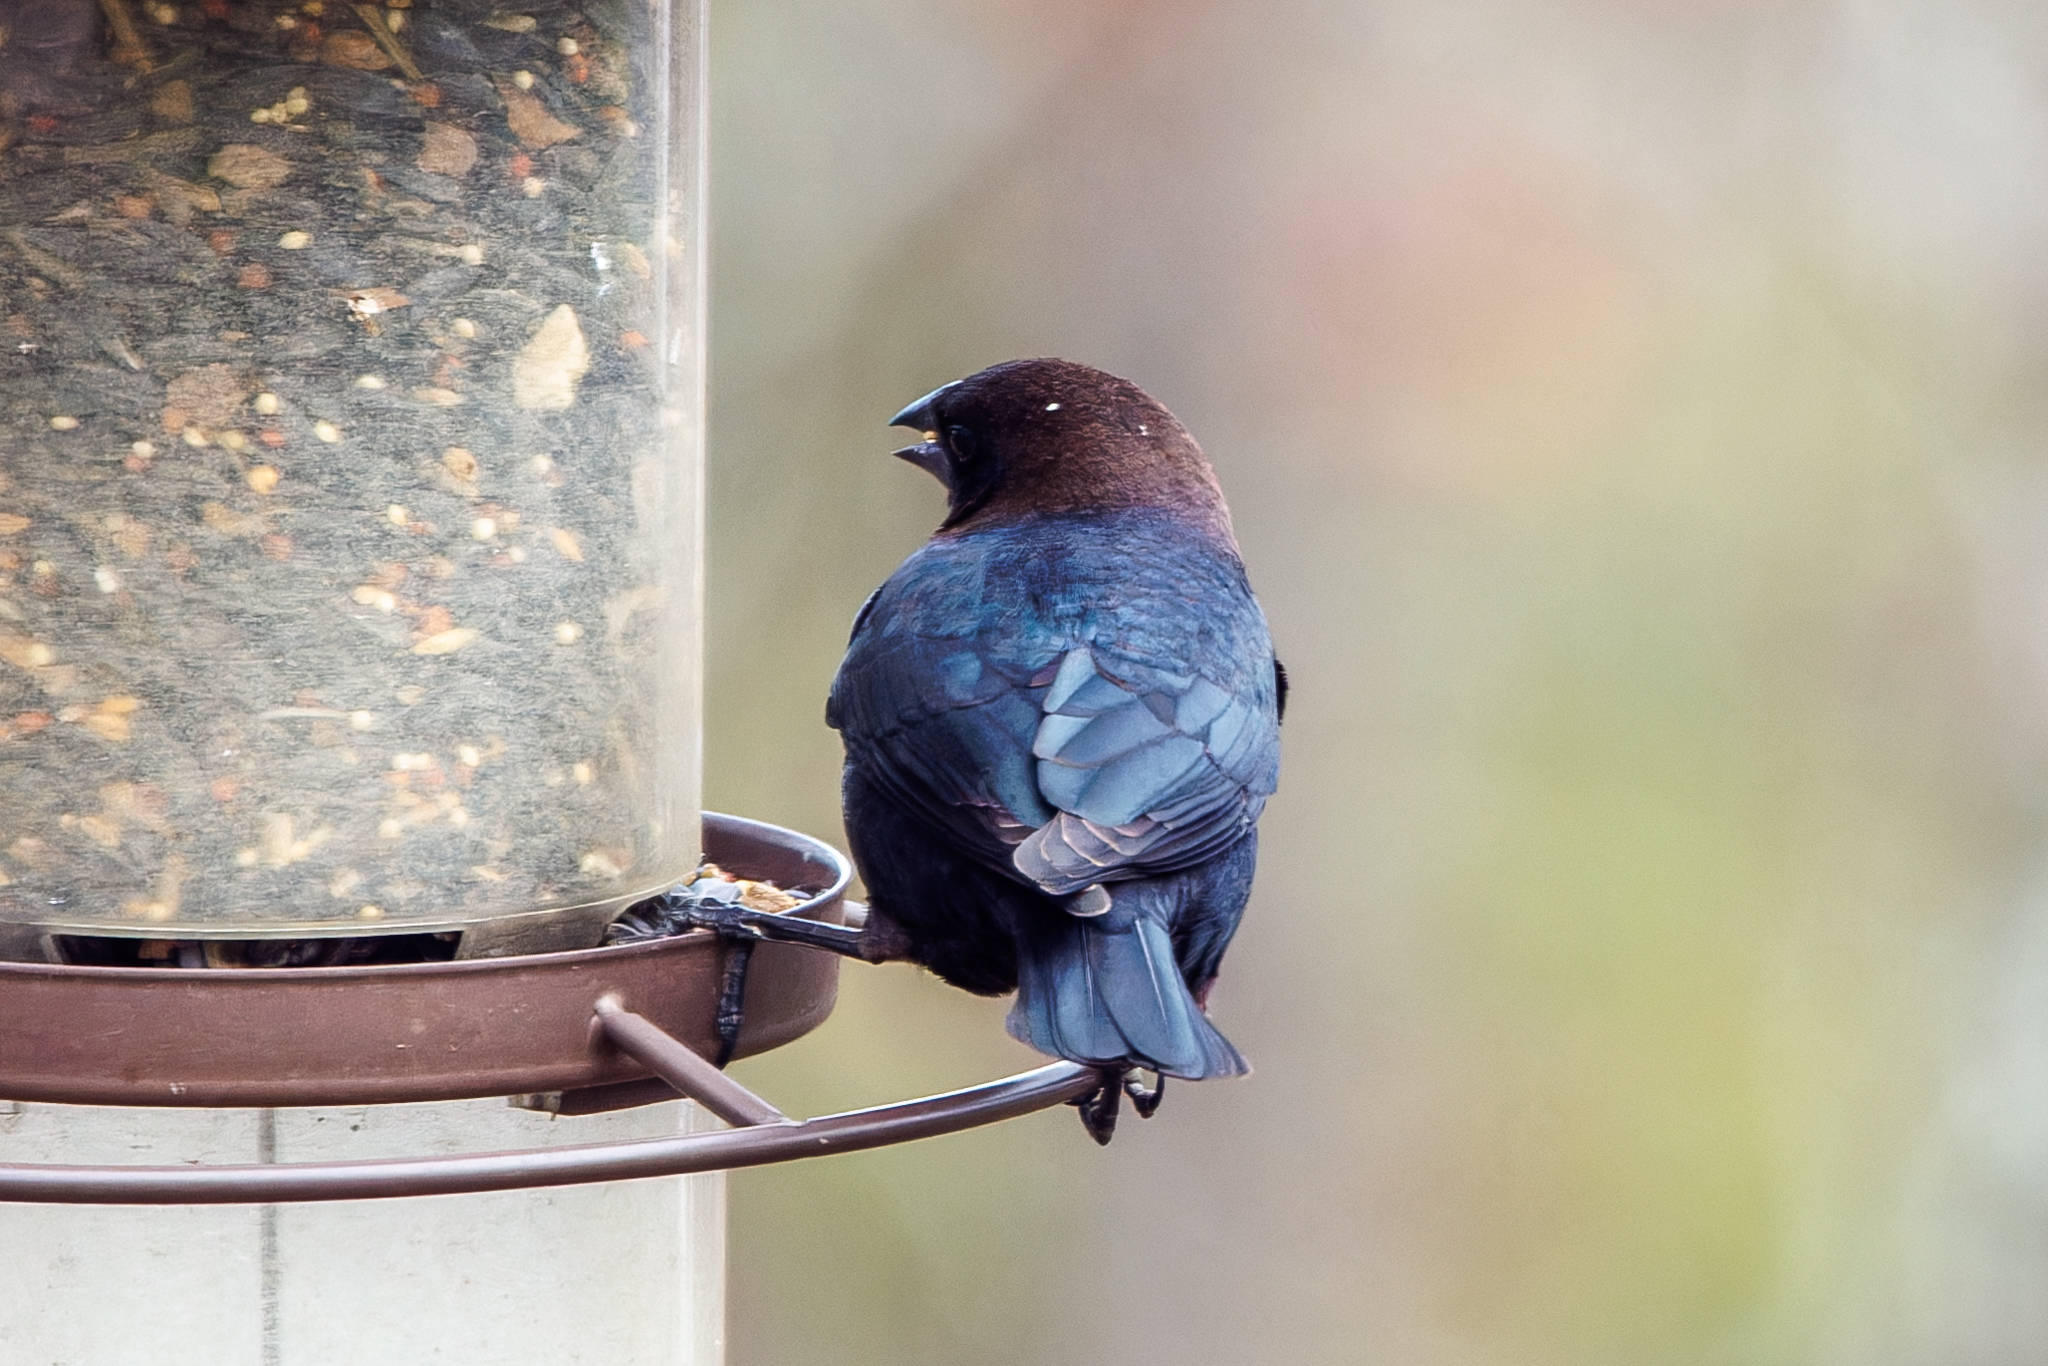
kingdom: Animalia
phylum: Chordata
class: Aves
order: Passeriformes
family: Icteridae
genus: Molothrus
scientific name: Molothrus ater
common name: Brown-headed cowbird
